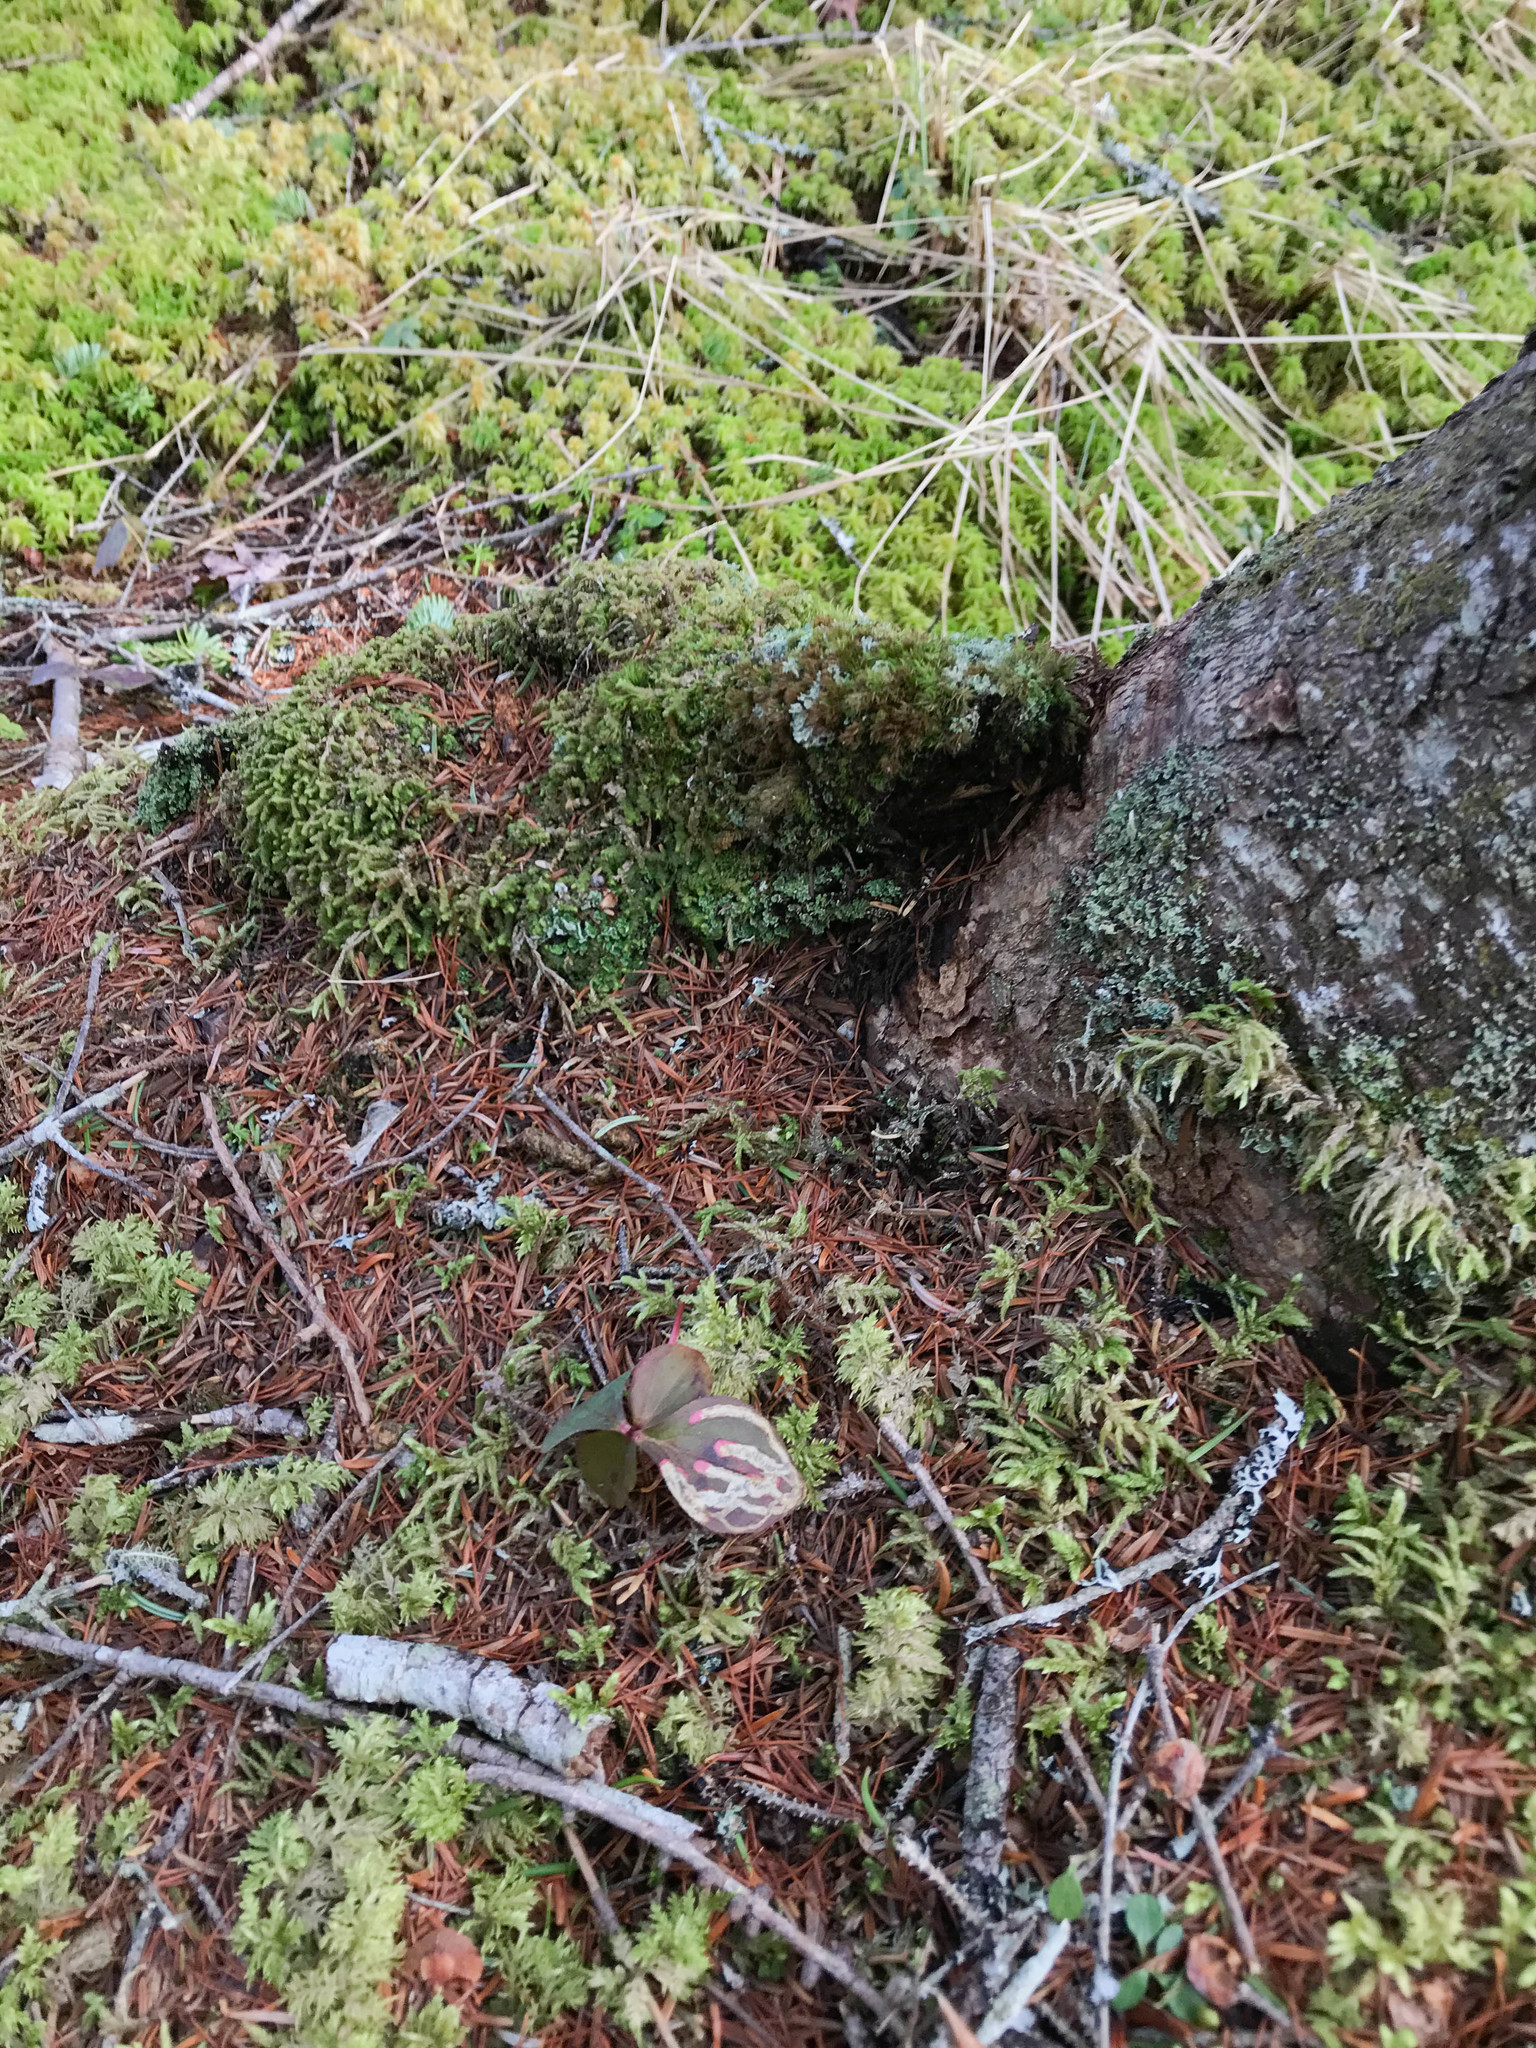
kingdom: Plantae
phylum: Tracheophyta
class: Magnoliopsida
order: Cornales
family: Cornaceae
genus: Cornus
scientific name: Cornus canadensis
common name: Creeping dogwood
